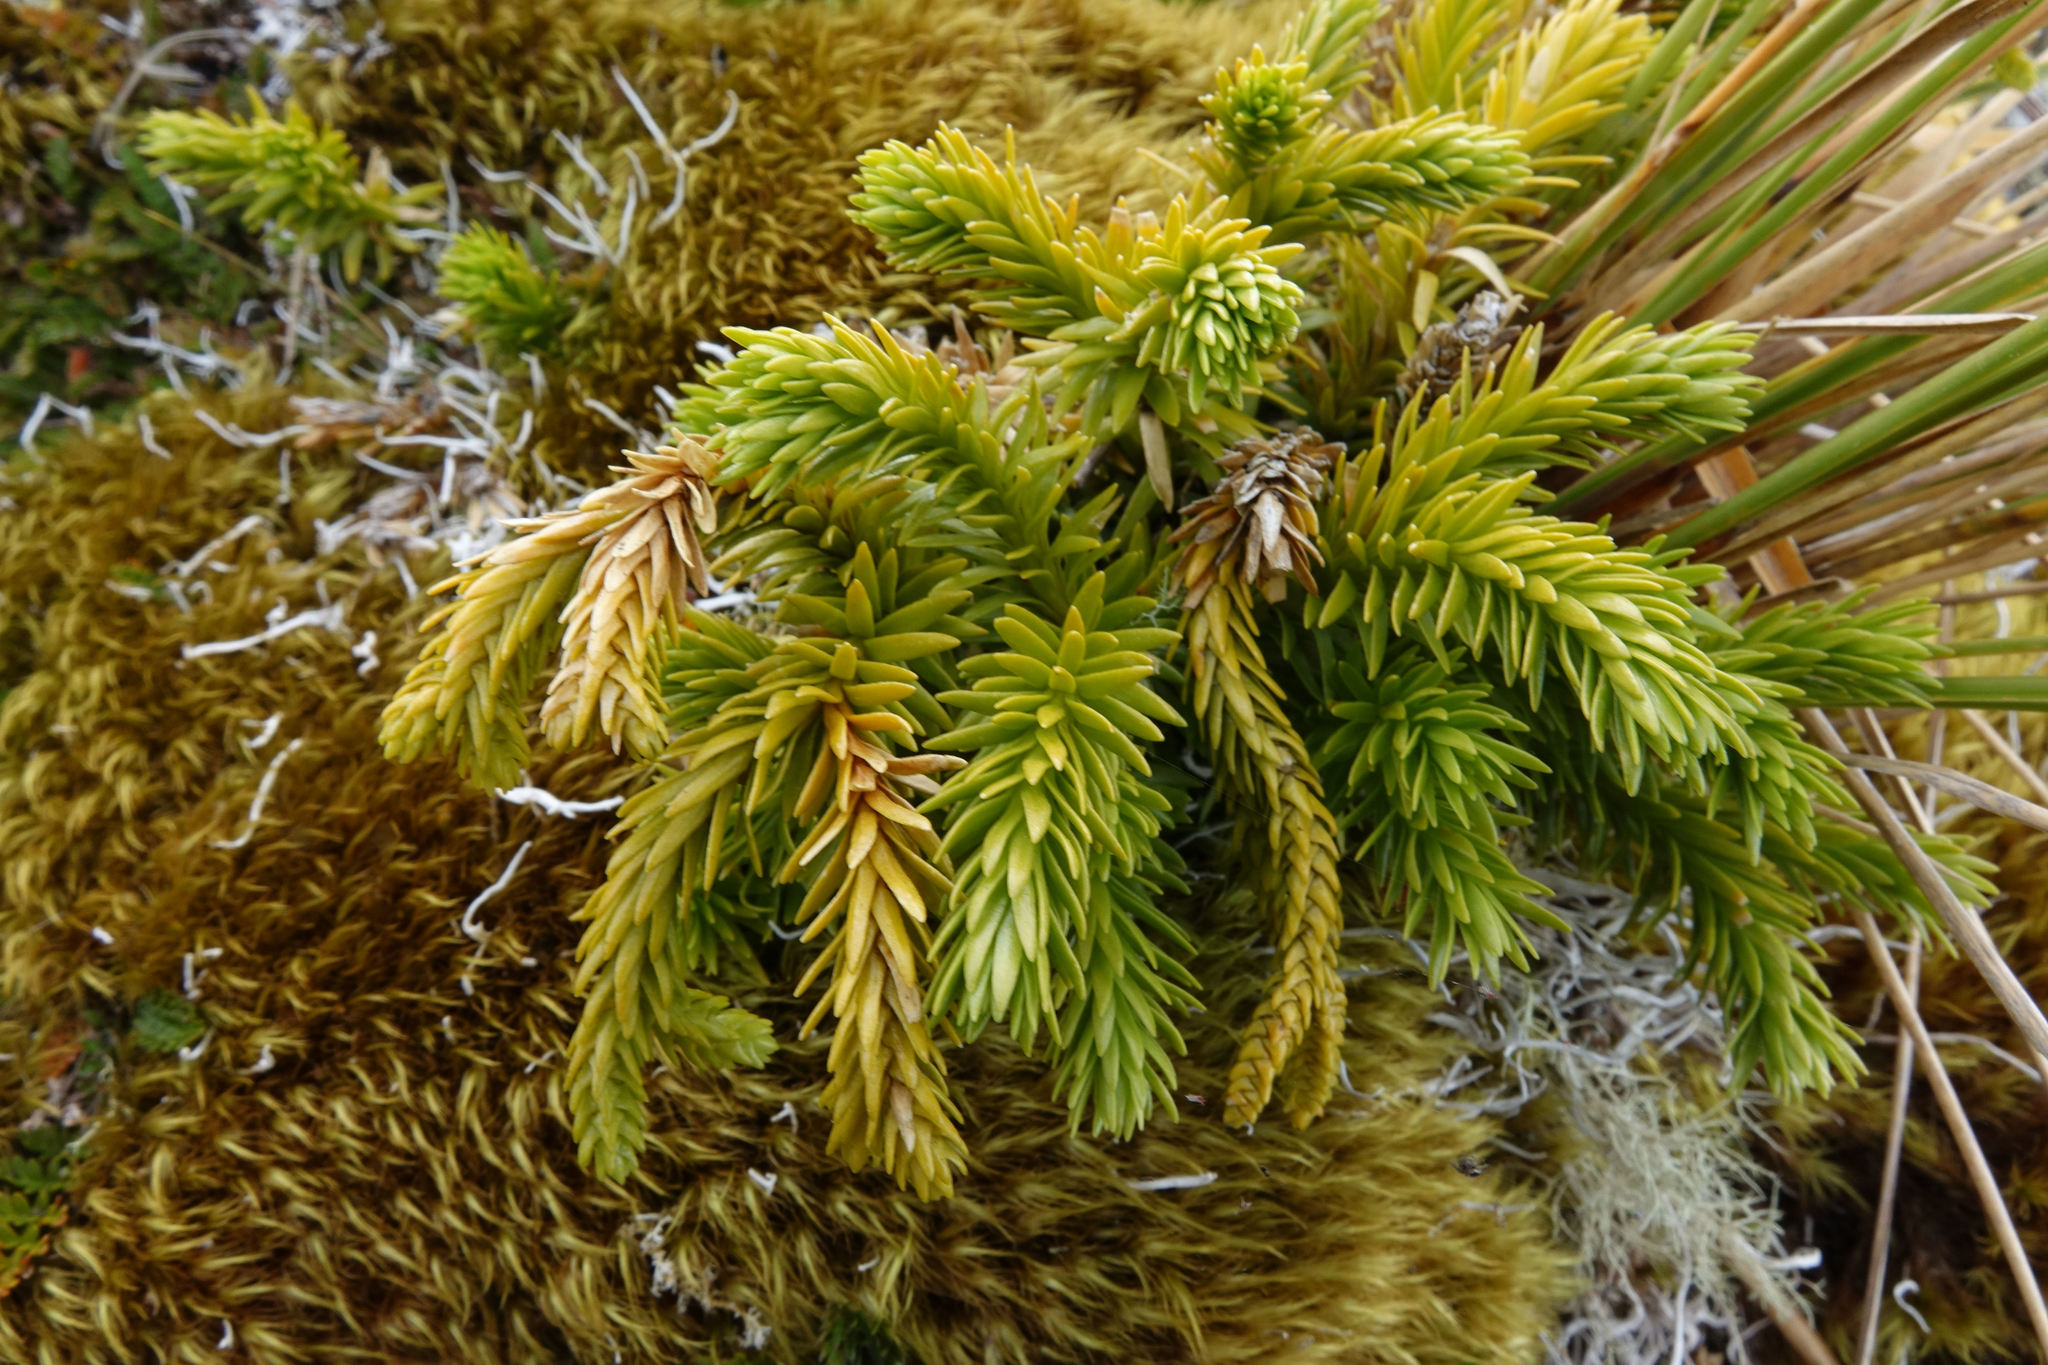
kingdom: Plantae
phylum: Tracheophyta
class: Lycopodiopsida
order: Lycopodiales
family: Lycopodiaceae
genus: Phlegmariurus
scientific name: Phlegmariurus varius
